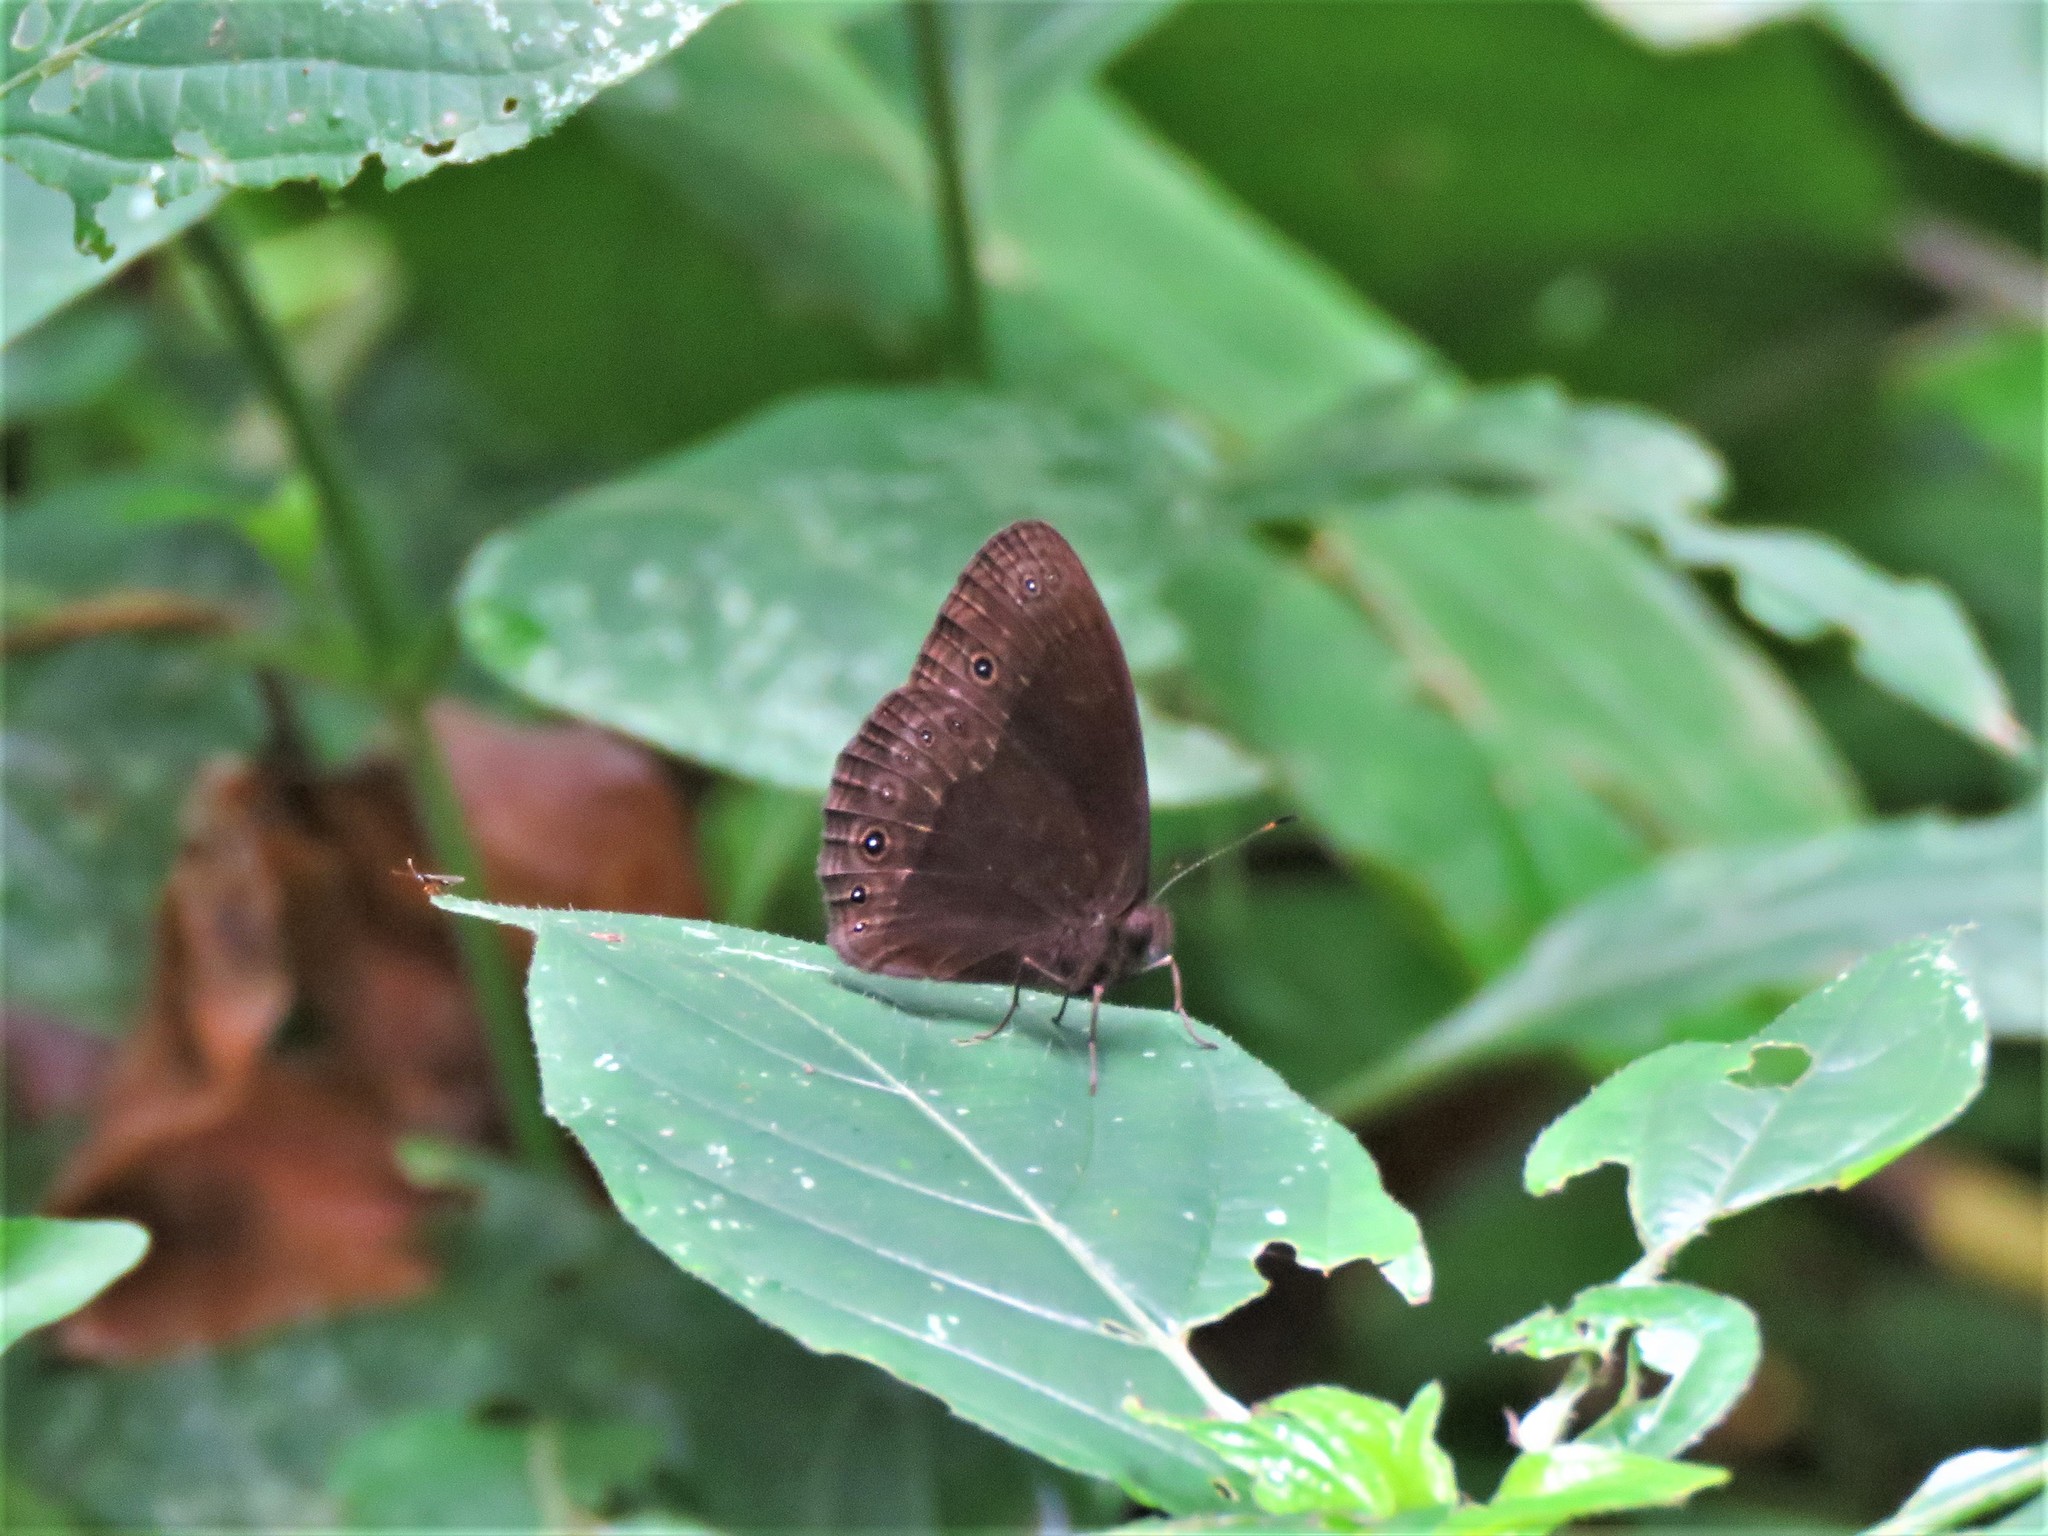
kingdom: Animalia
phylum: Arthropoda
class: Insecta
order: Lepidoptera
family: Nymphalidae
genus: Bicyclus
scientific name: Bicyclus
